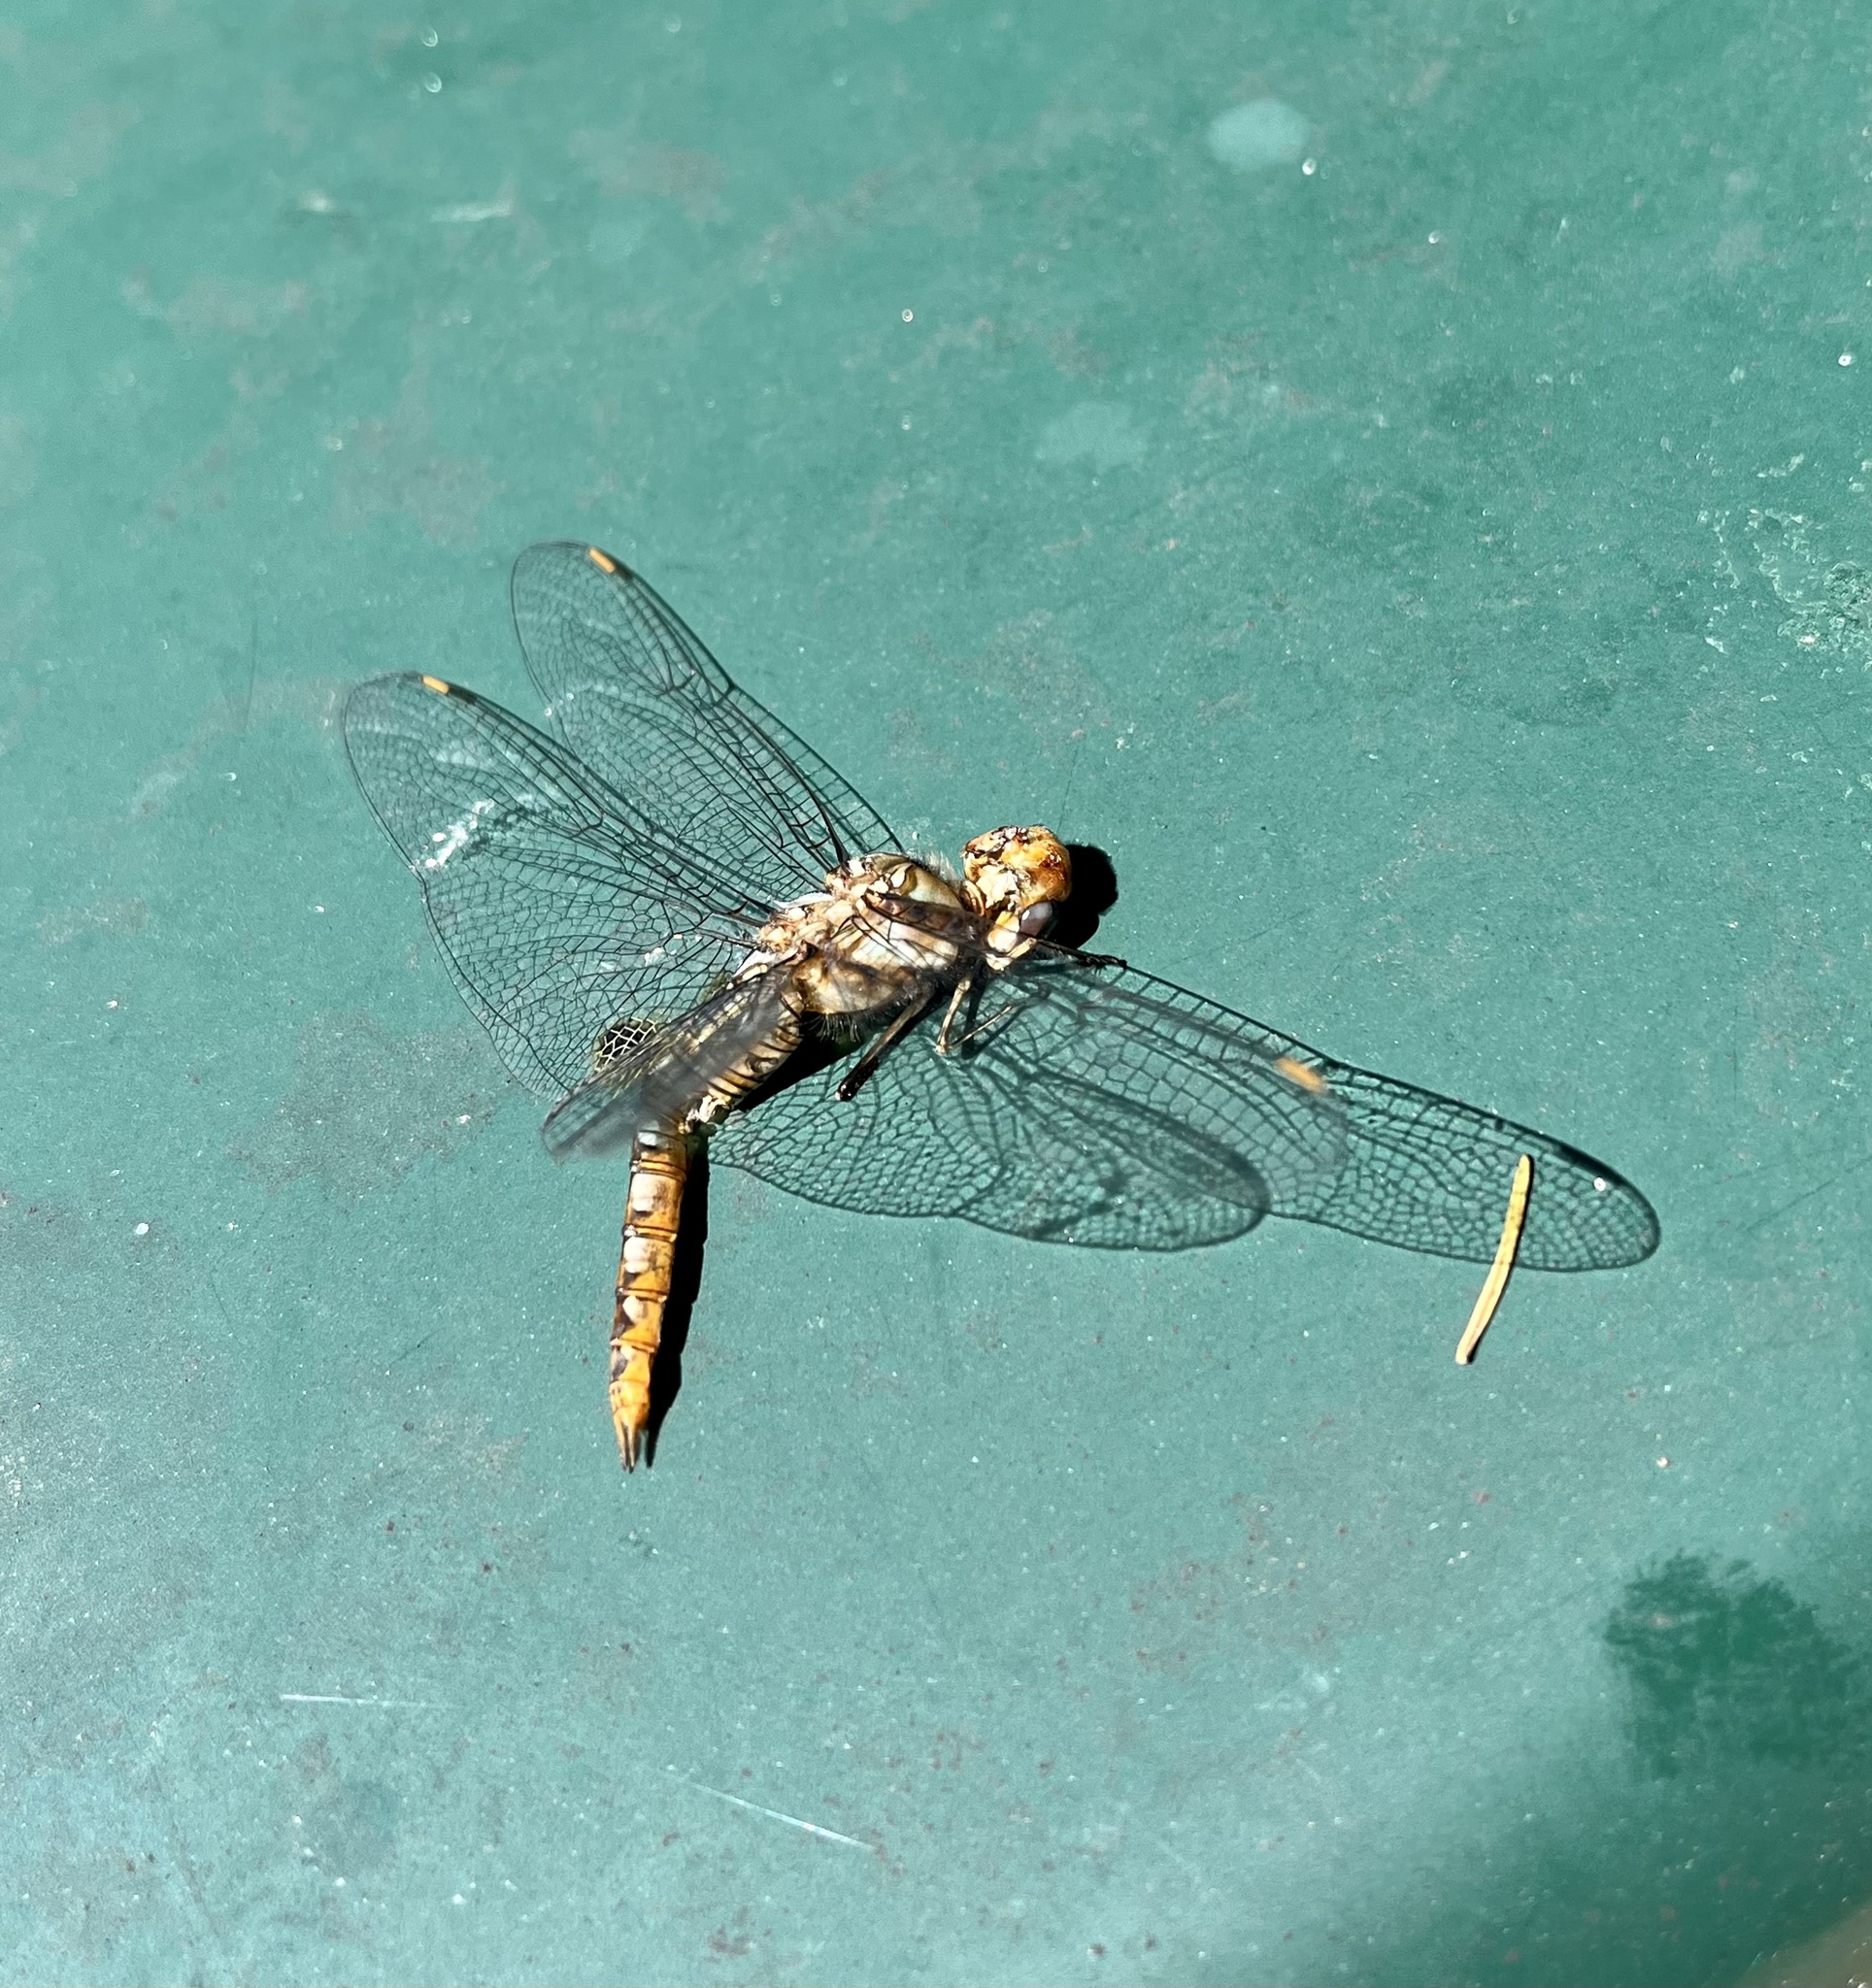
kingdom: Animalia
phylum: Arthropoda
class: Insecta
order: Odonata
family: Libellulidae
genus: Pantala
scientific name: Pantala hymenaea
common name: Spot-winged glider
